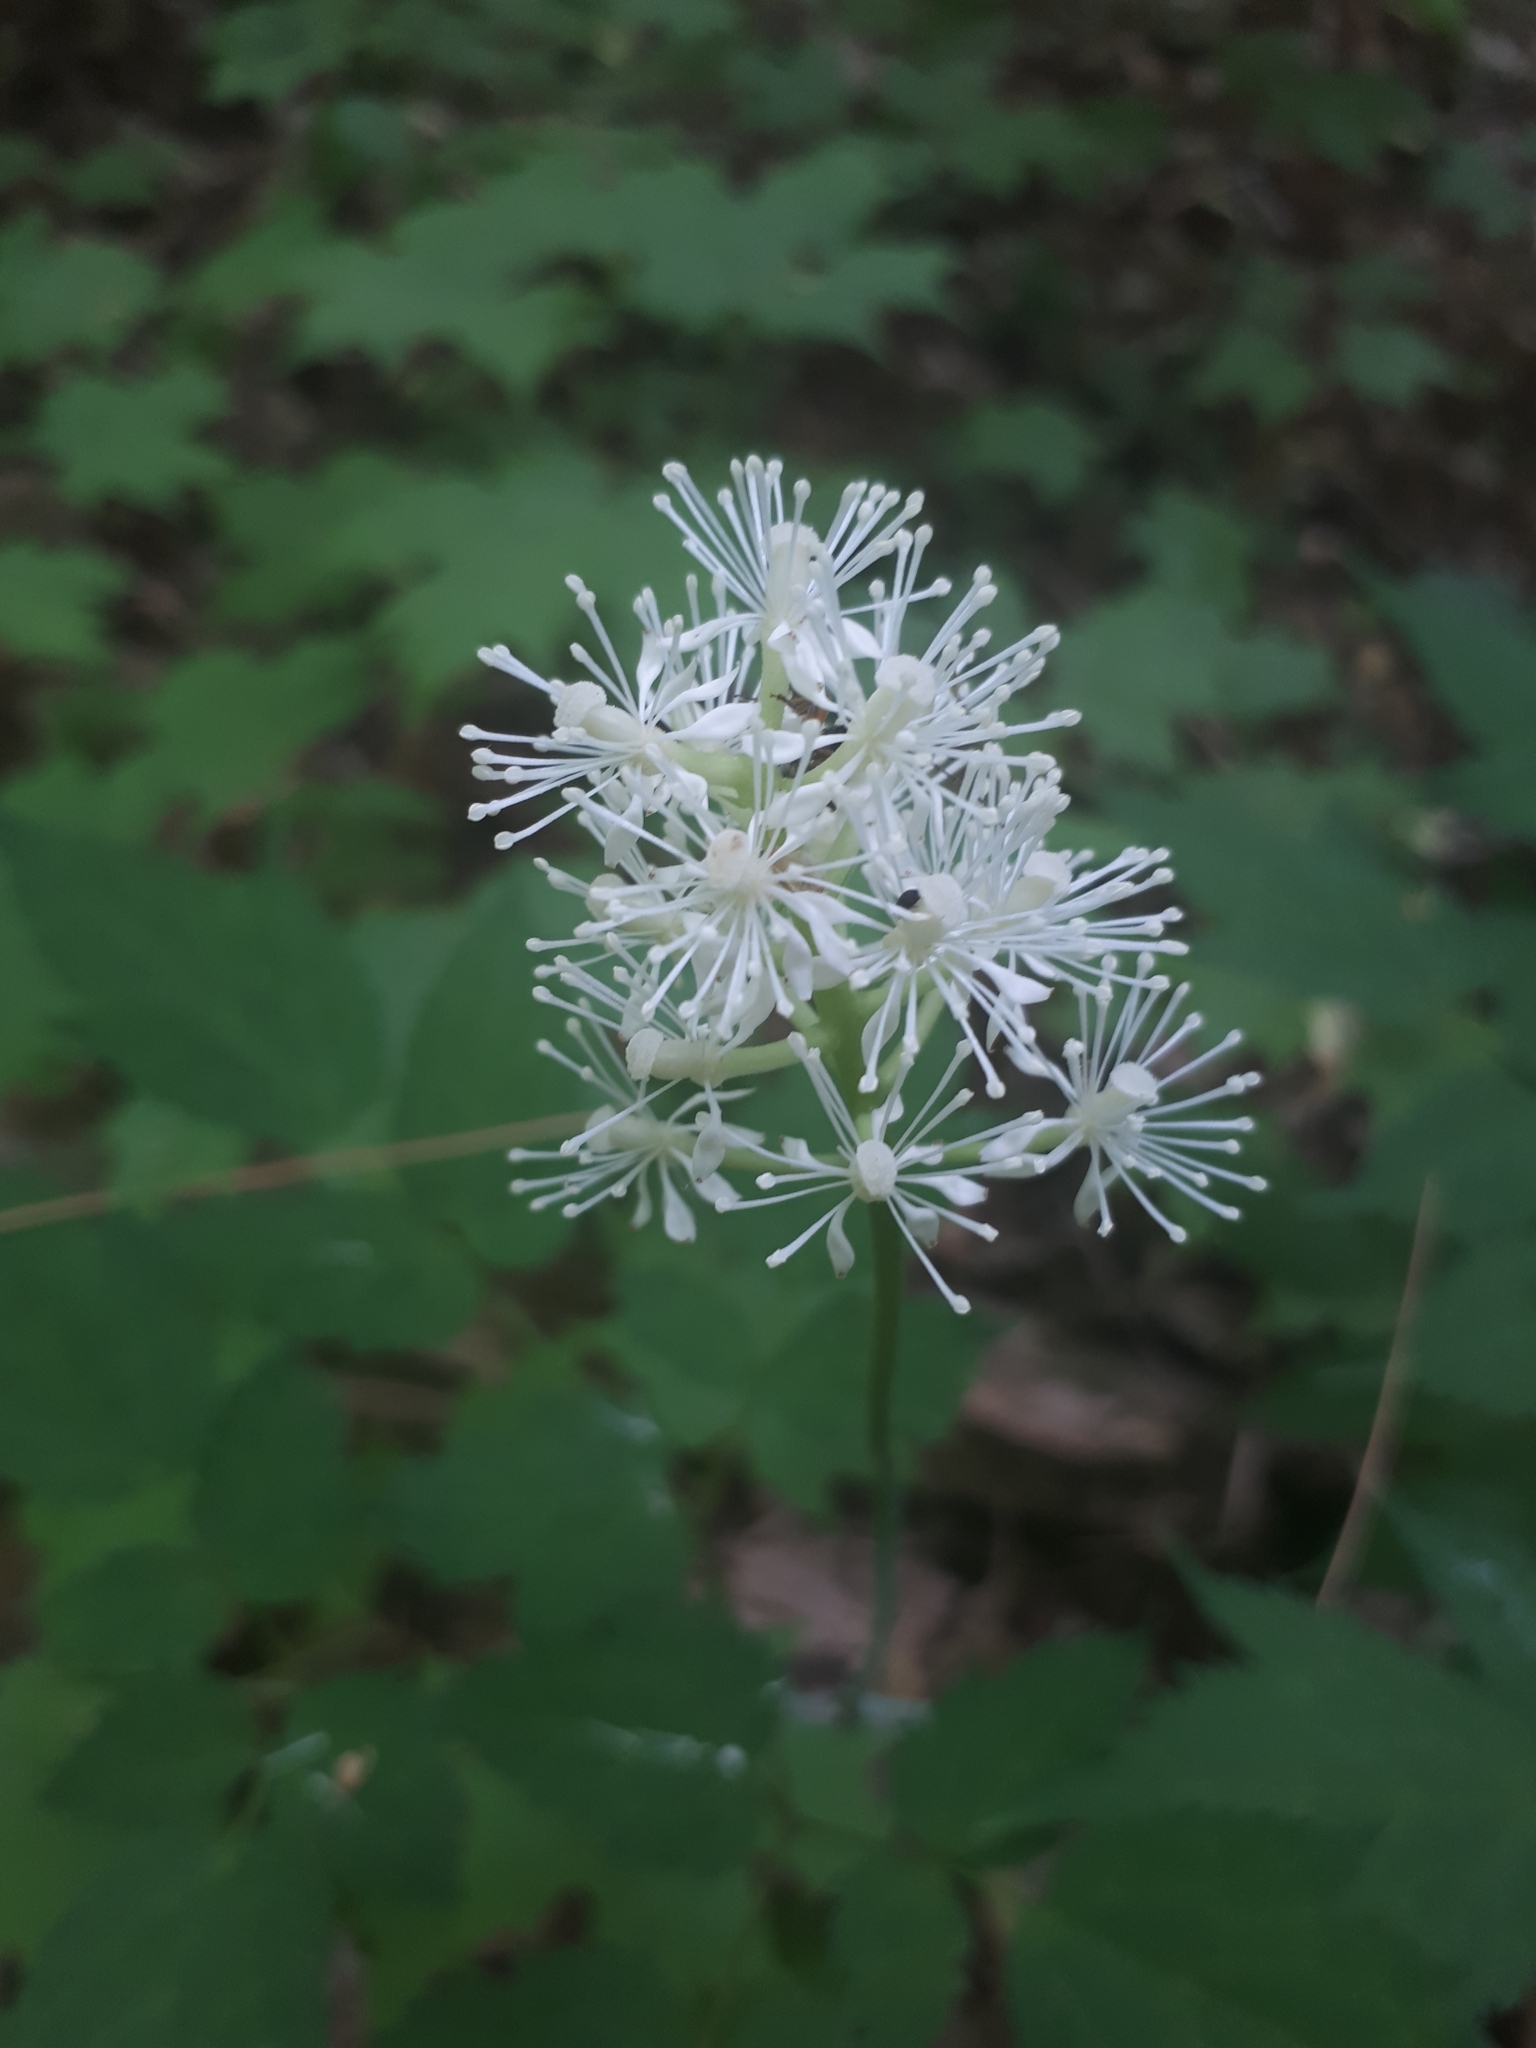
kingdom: Plantae
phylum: Tracheophyta
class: Magnoliopsida
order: Ranunculales
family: Ranunculaceae
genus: Actaea
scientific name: Actaea pachypoda
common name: Doll's-eyes
